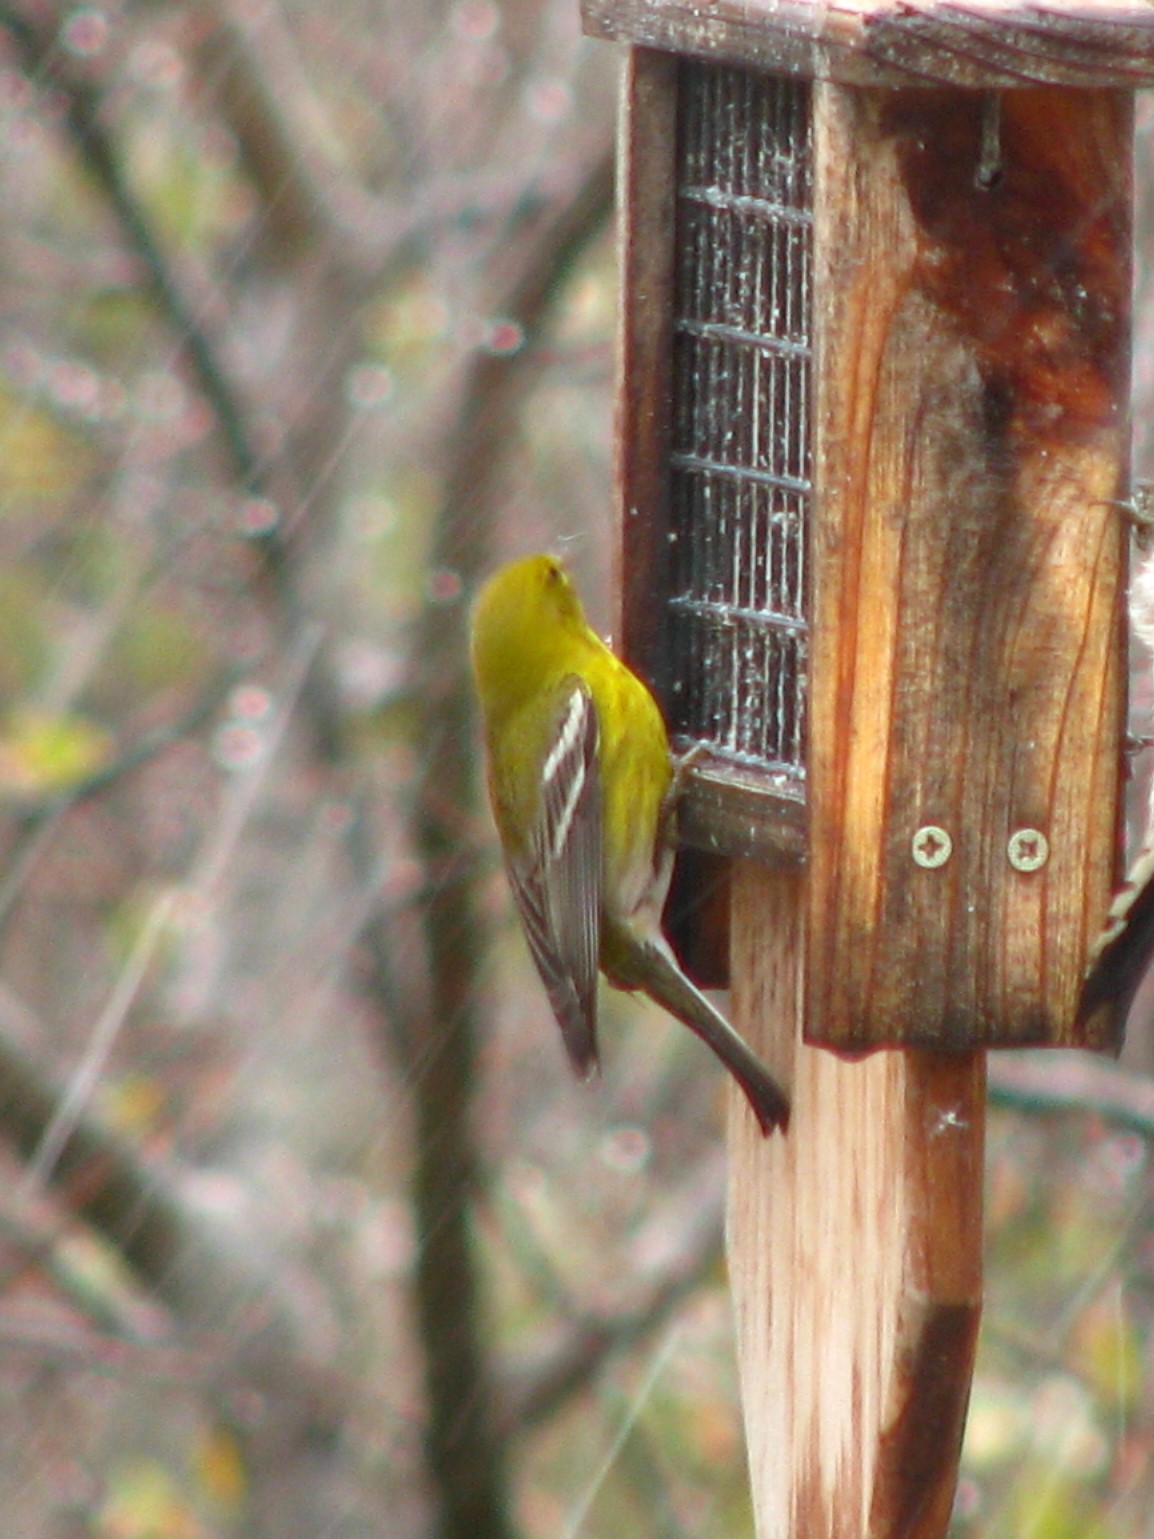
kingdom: Animalia
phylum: Chordata
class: Aves
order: Passeriformes
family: Parulidae
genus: Setophaga
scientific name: Setophaga pinus
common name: Pine warbler
